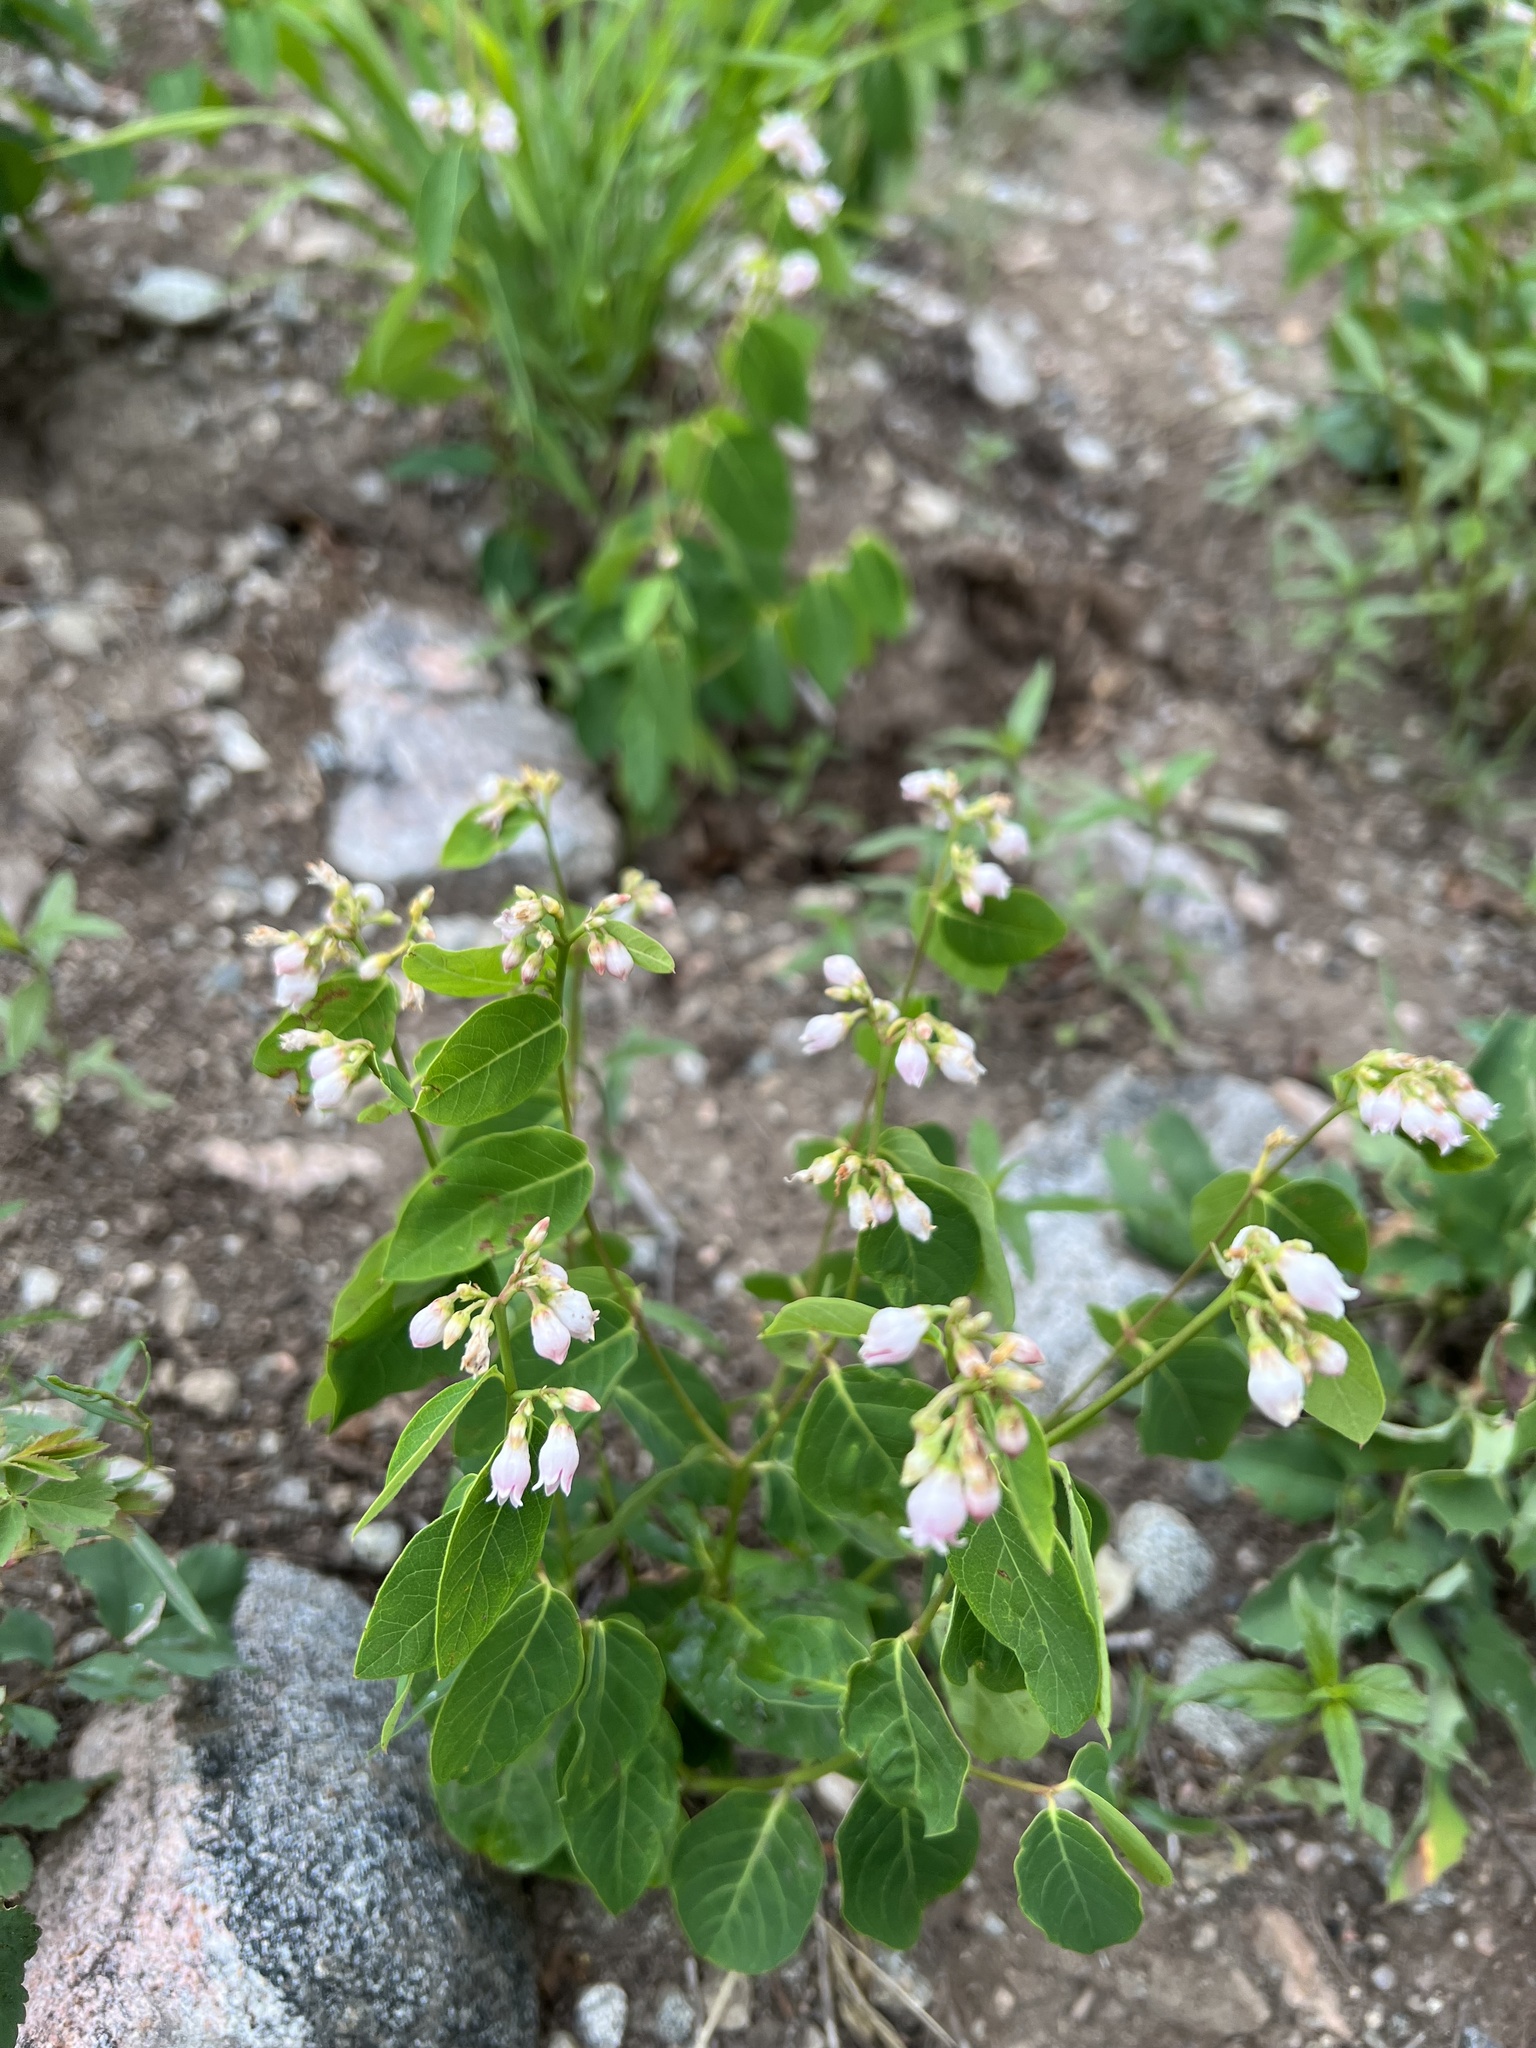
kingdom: Plantae
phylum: Tracheophyta
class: Magnoliopsida
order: Gentianales
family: Apocynaceae
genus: Apocynum
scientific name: Apocynum androsaemifolium
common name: Spreading dogbane
